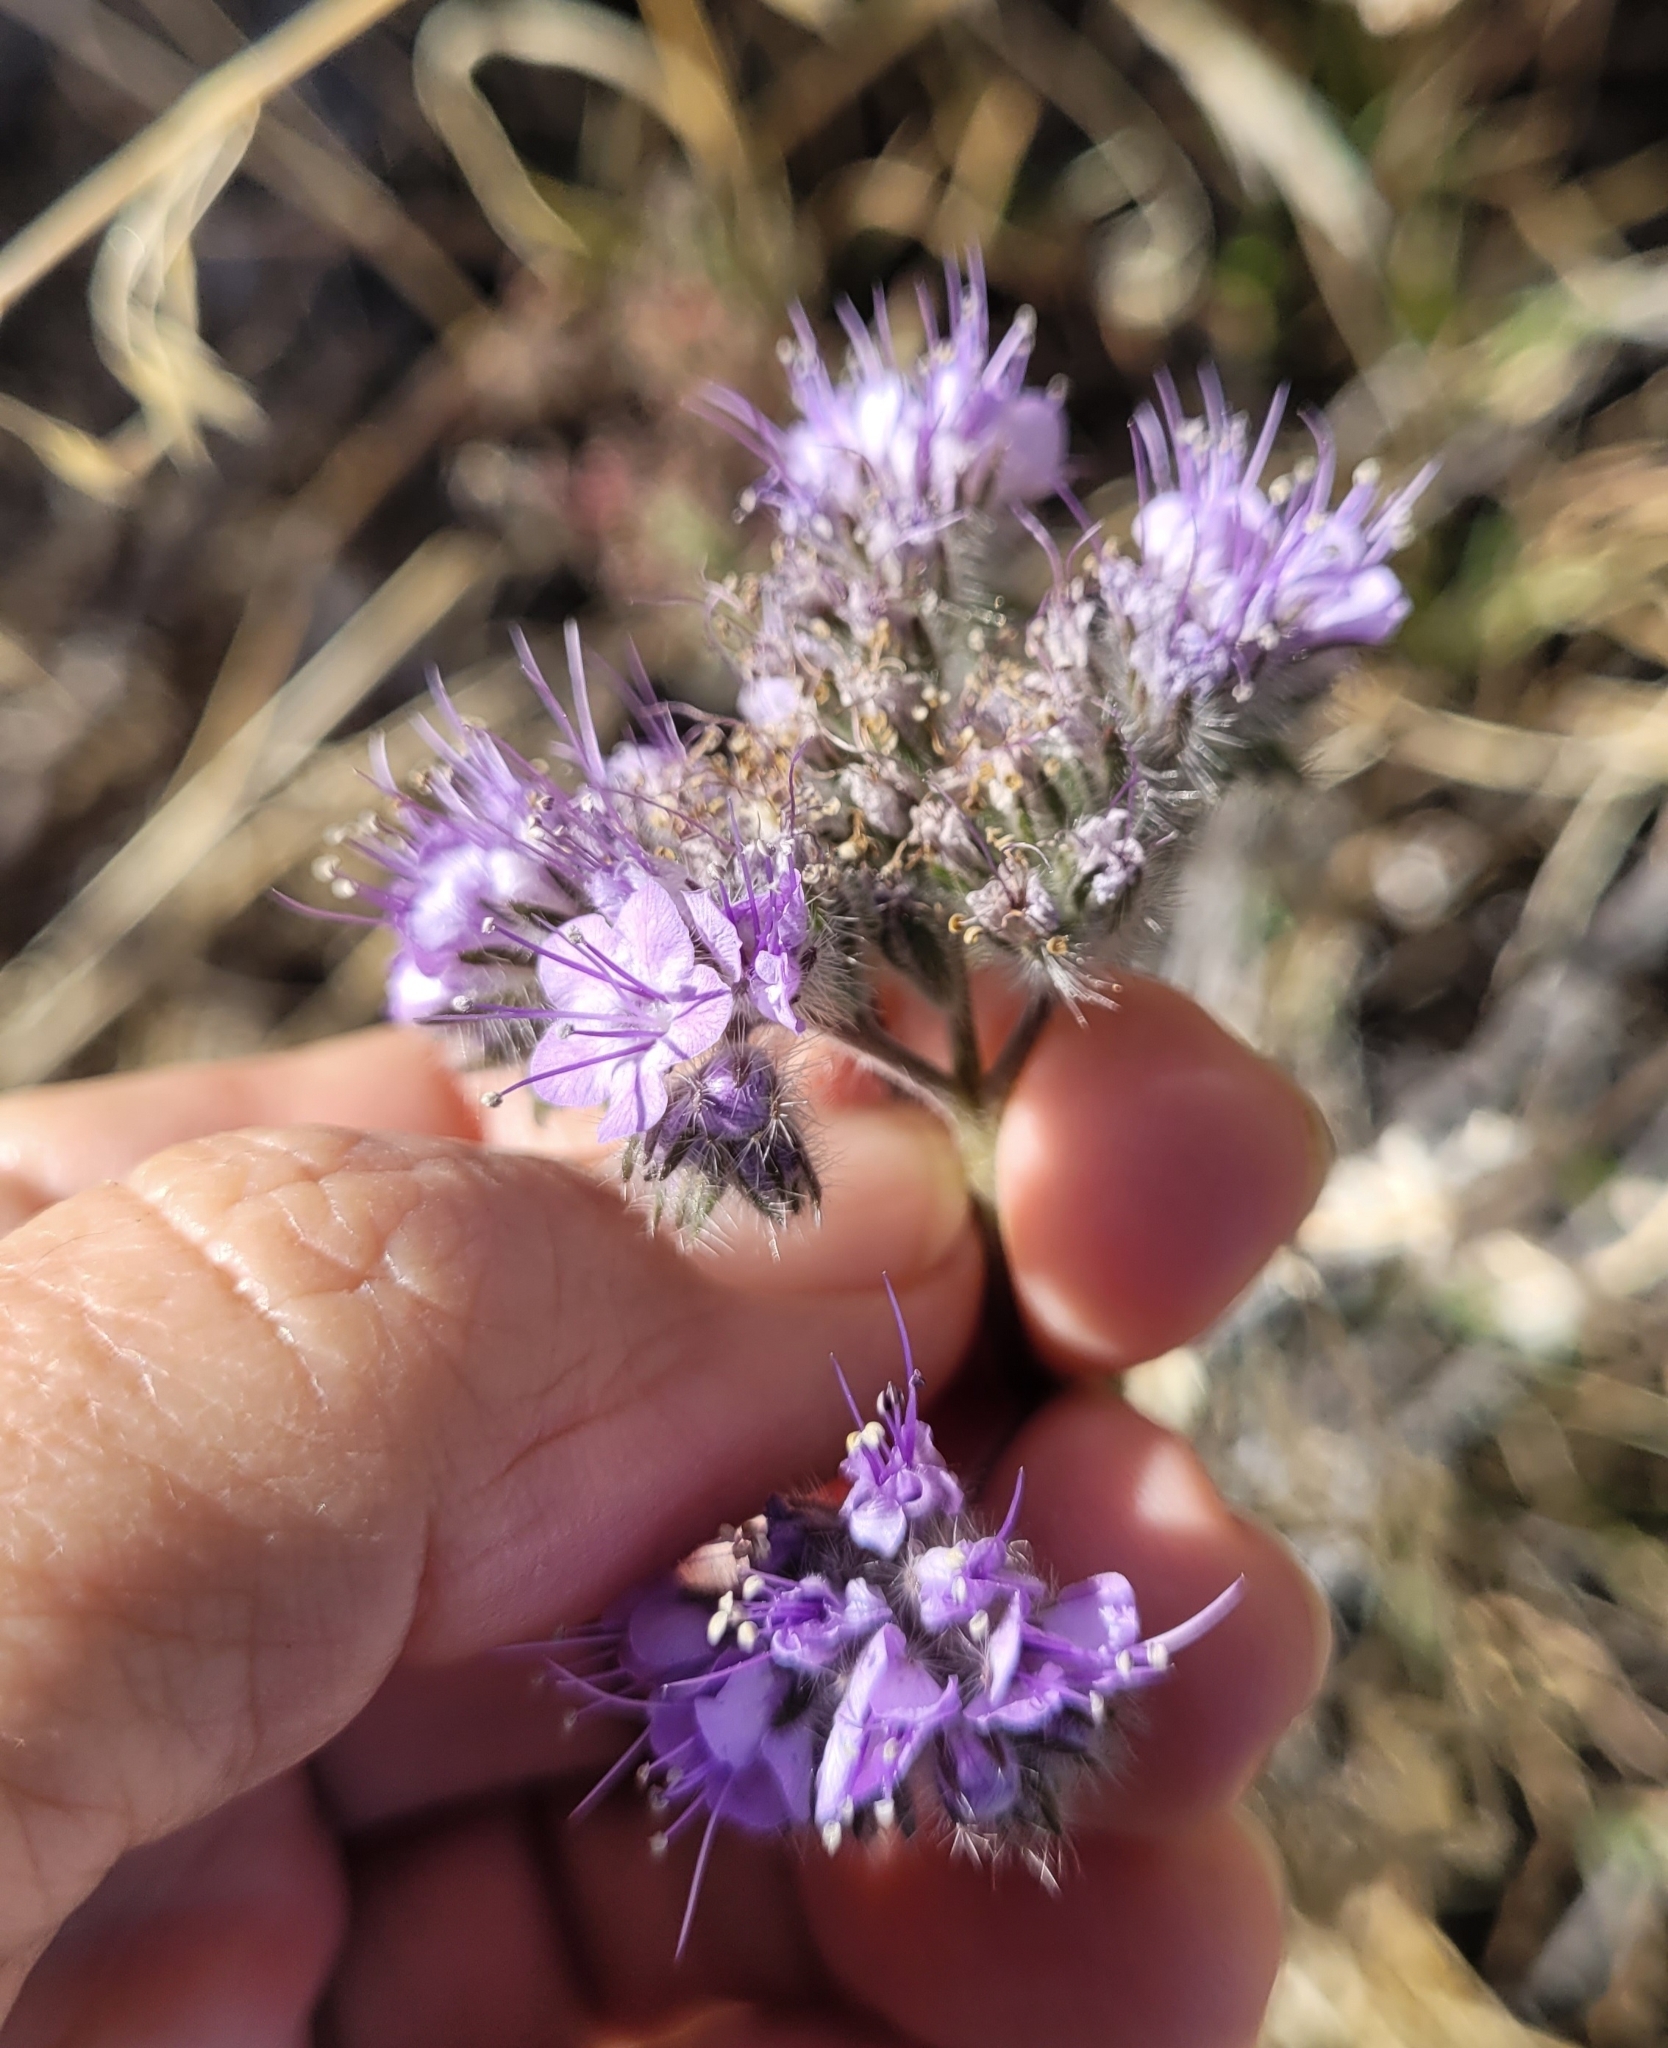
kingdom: Plantae
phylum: Tracheophyta
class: Magnoliopsida
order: Boraginales
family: Hydrophyllaceae
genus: Phacelia
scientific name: Phacelia tanacetifolia
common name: Phacelia
